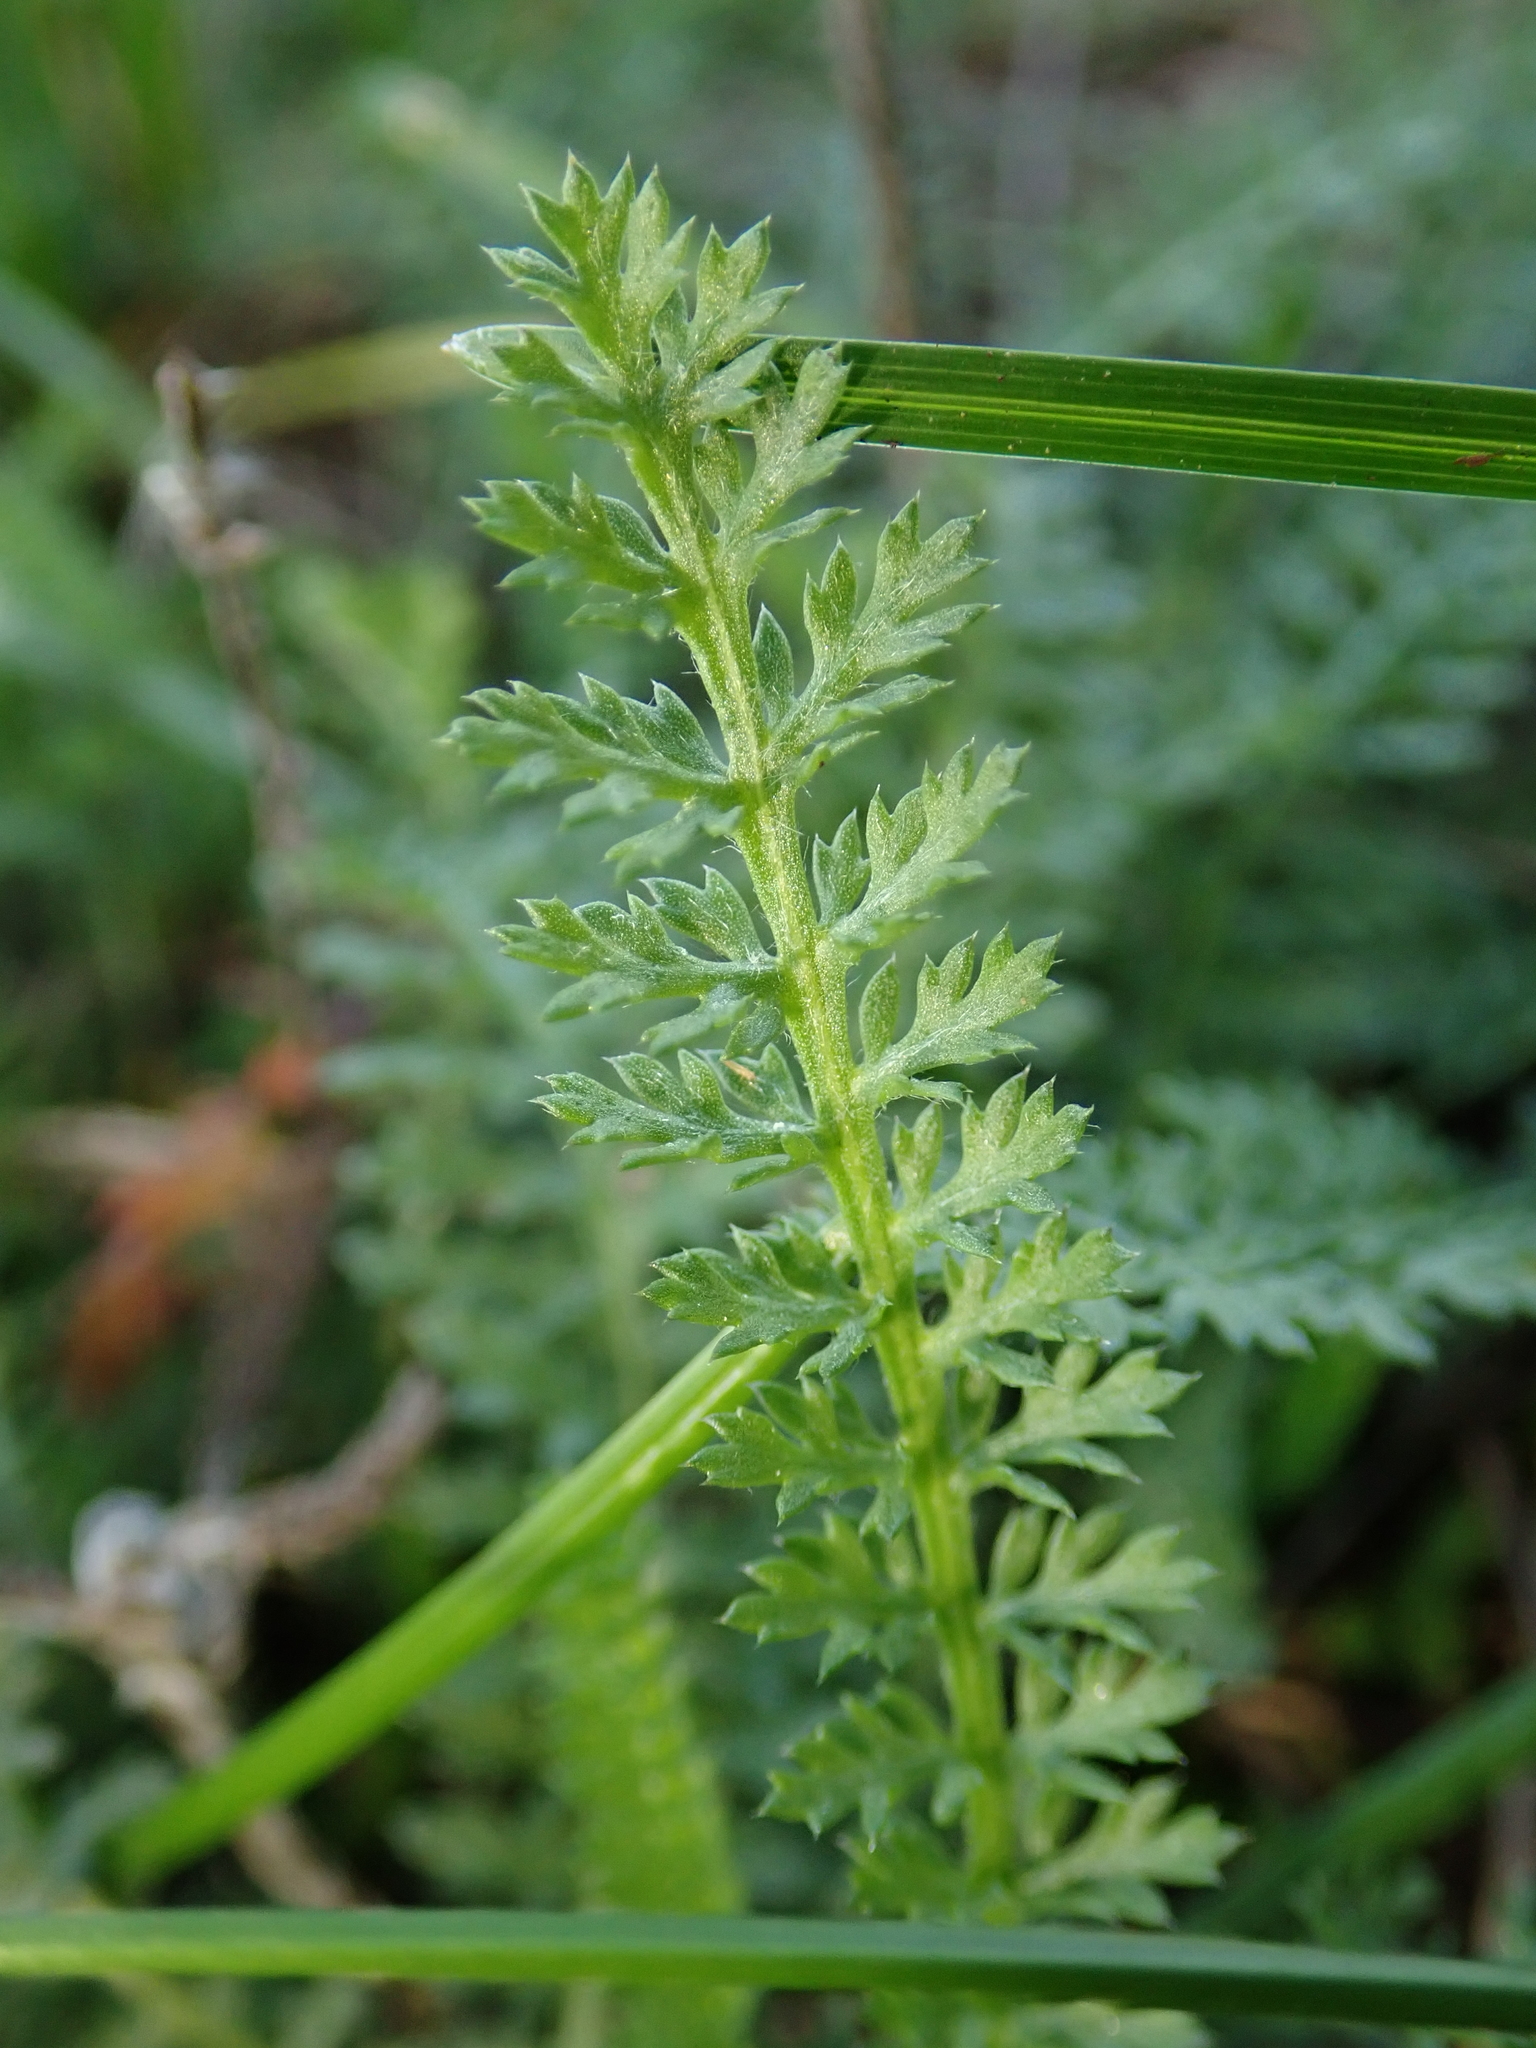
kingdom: Plantae
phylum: Tracheophyta
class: Magnoliopsida
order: Asterales
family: Asteraceae
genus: Achillea
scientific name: Achillea millefolium
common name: Yarrow
